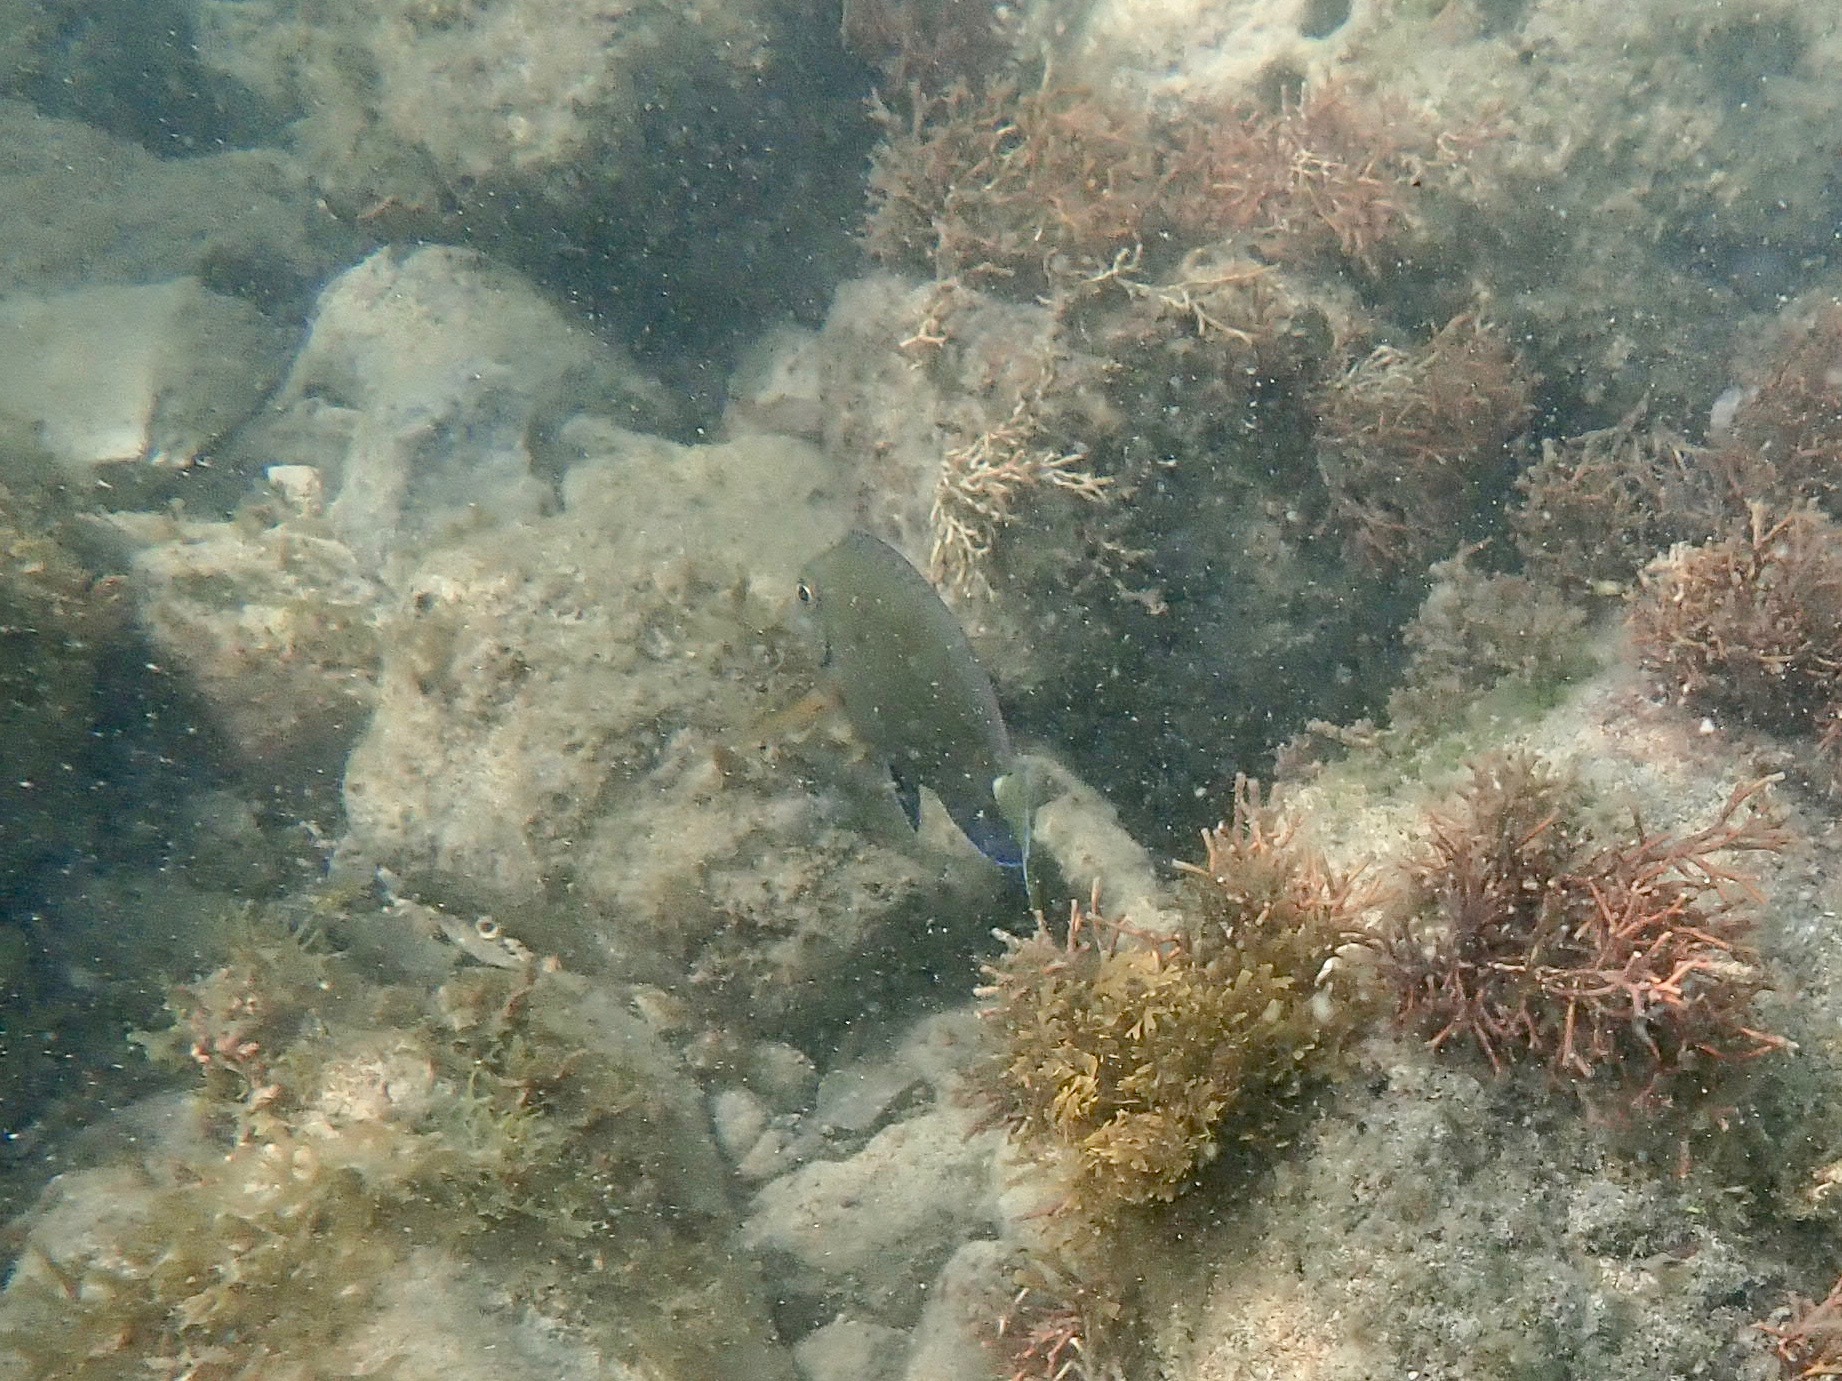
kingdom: Animalia
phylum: Chordata
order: Perciformes
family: Acanthuridae
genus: Acanthurus
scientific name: Acanthurus bahianus
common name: Ocean surgeon
